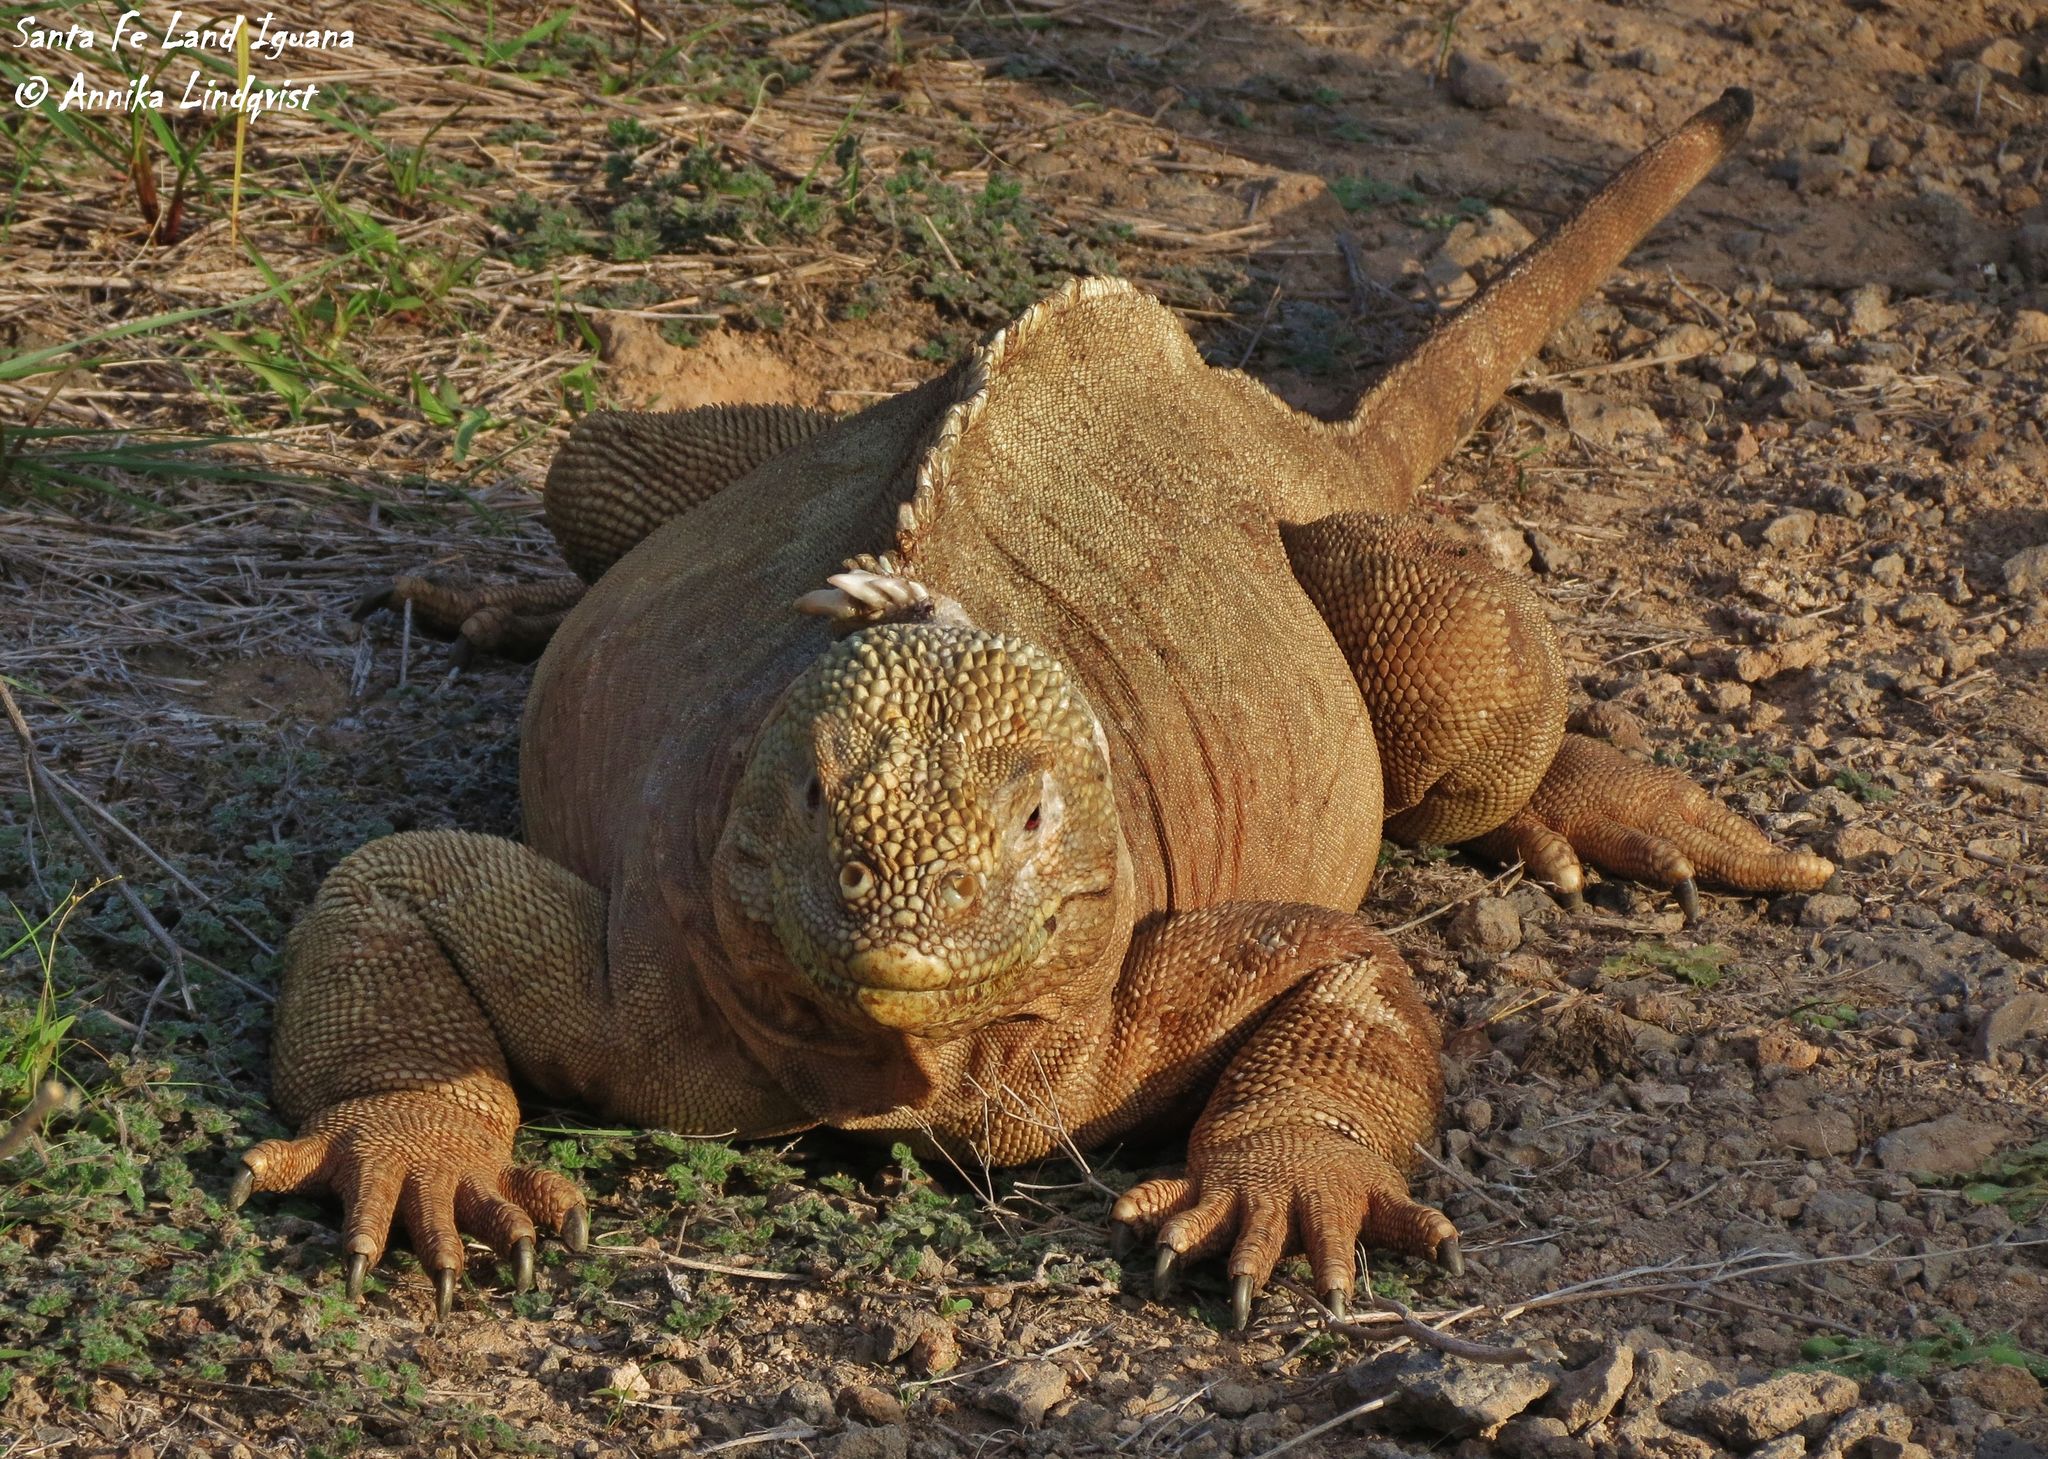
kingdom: Animalia
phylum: Chordata
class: Squamata
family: Iguanidae
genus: Conolophus
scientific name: Conolophus pallidus
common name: Santa fe land iguana
